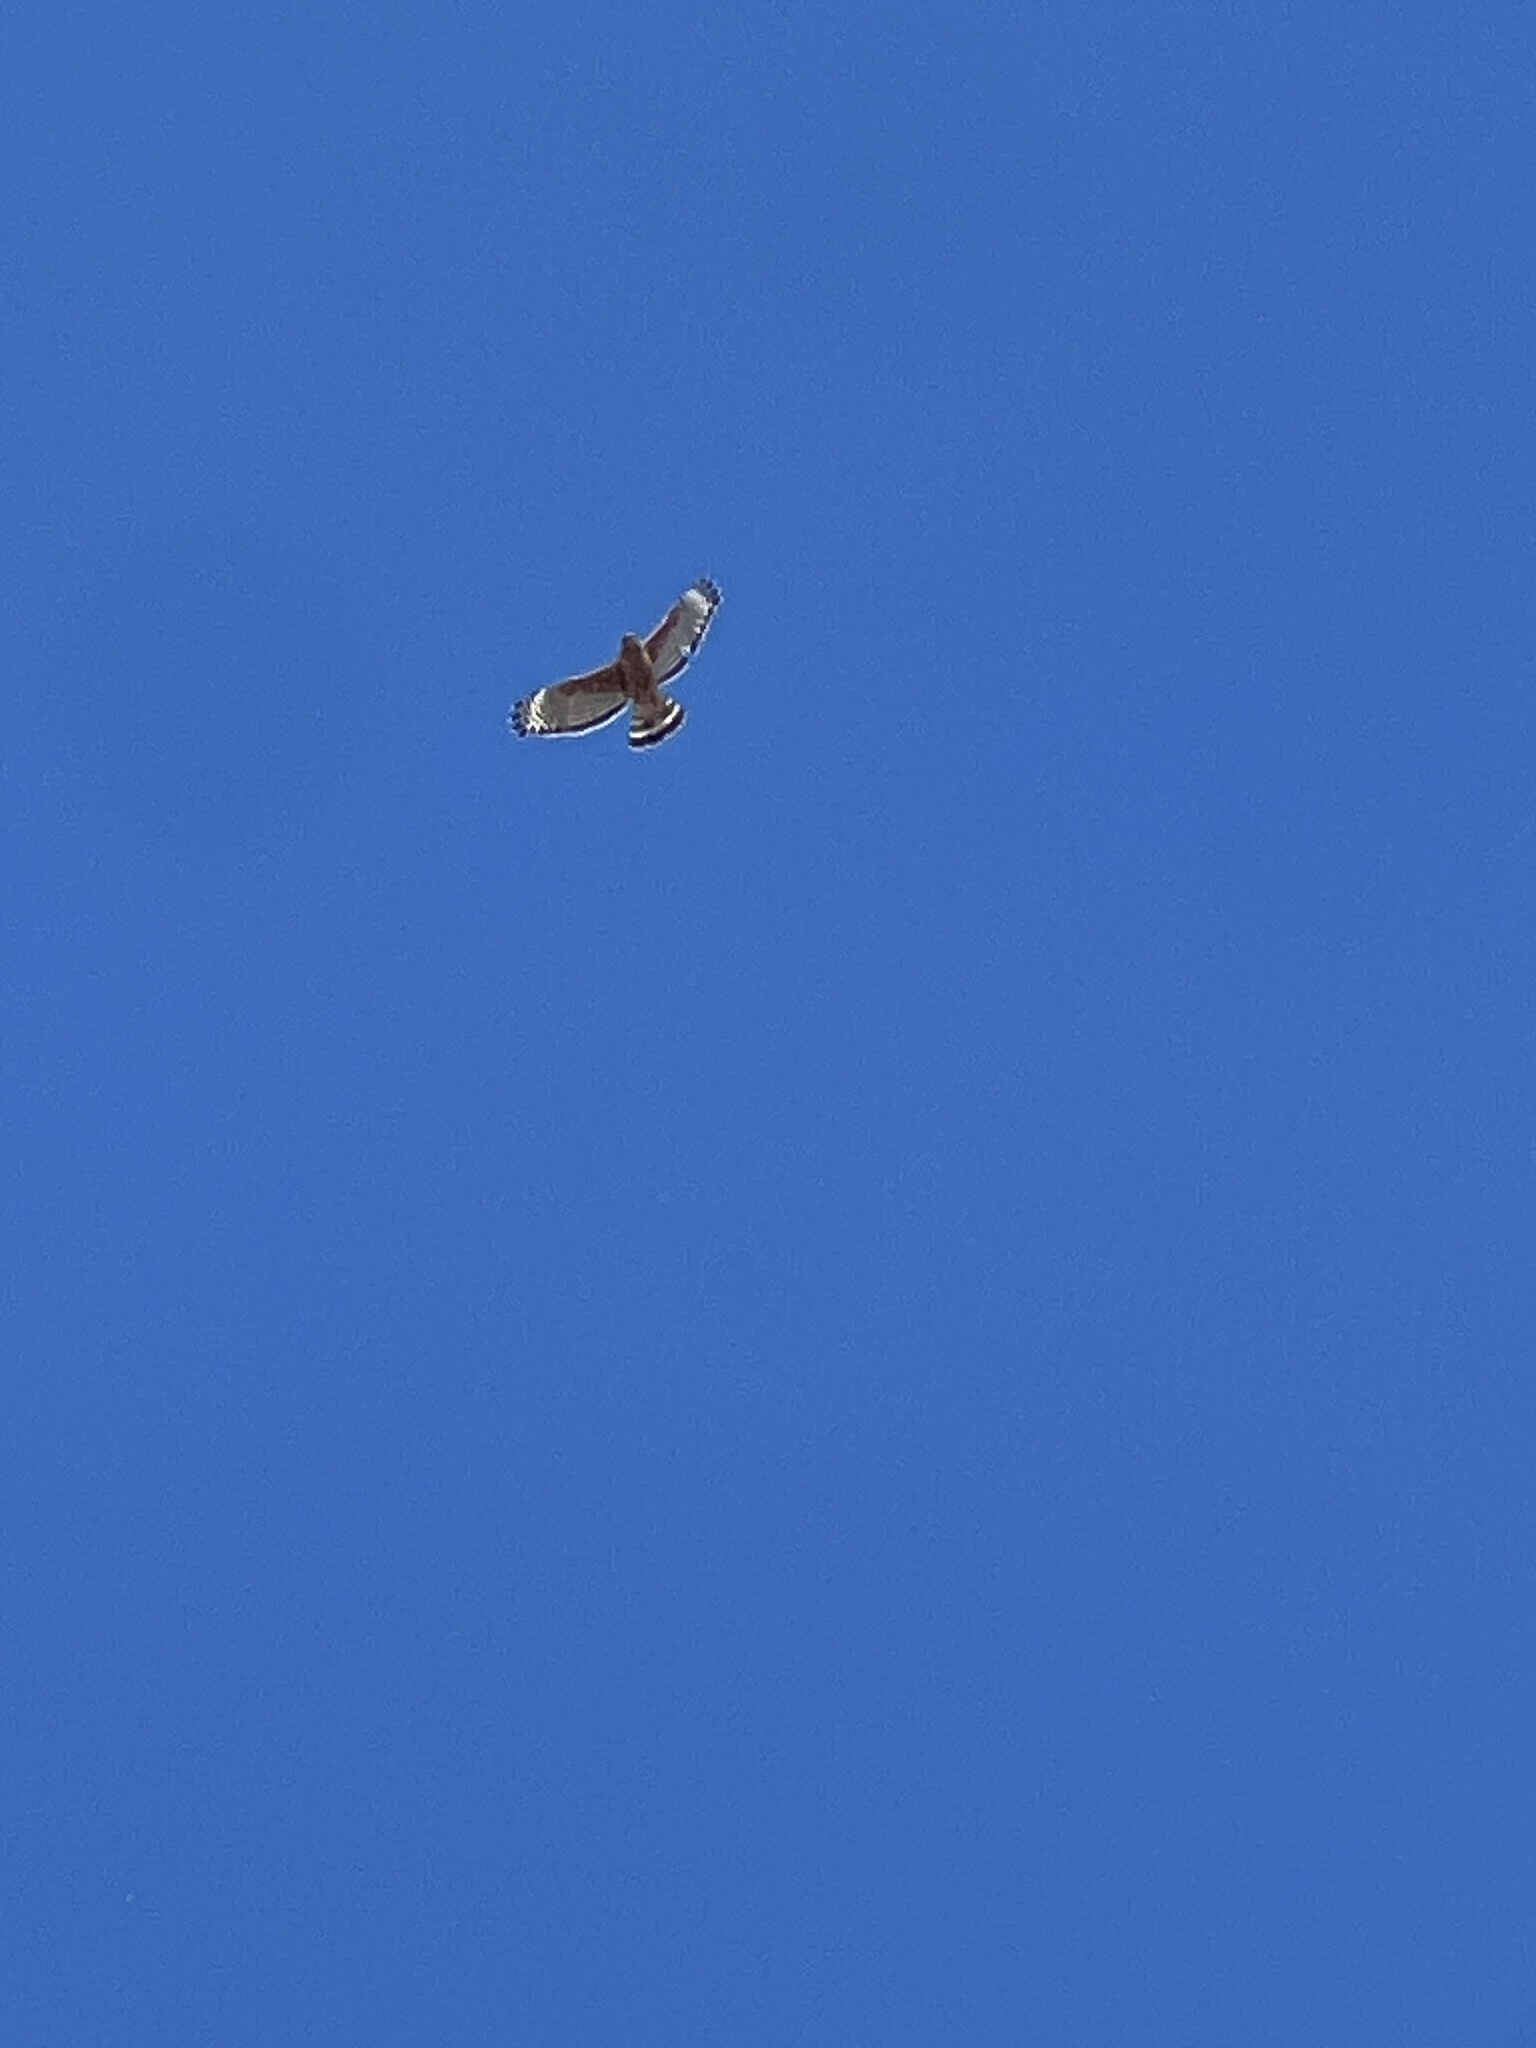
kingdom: Animalia
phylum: Chordata
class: Aves
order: Accipitriformes
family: Accipitridae
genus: Buteo
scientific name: Buteo lineatus
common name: Red-shouldered hawk
